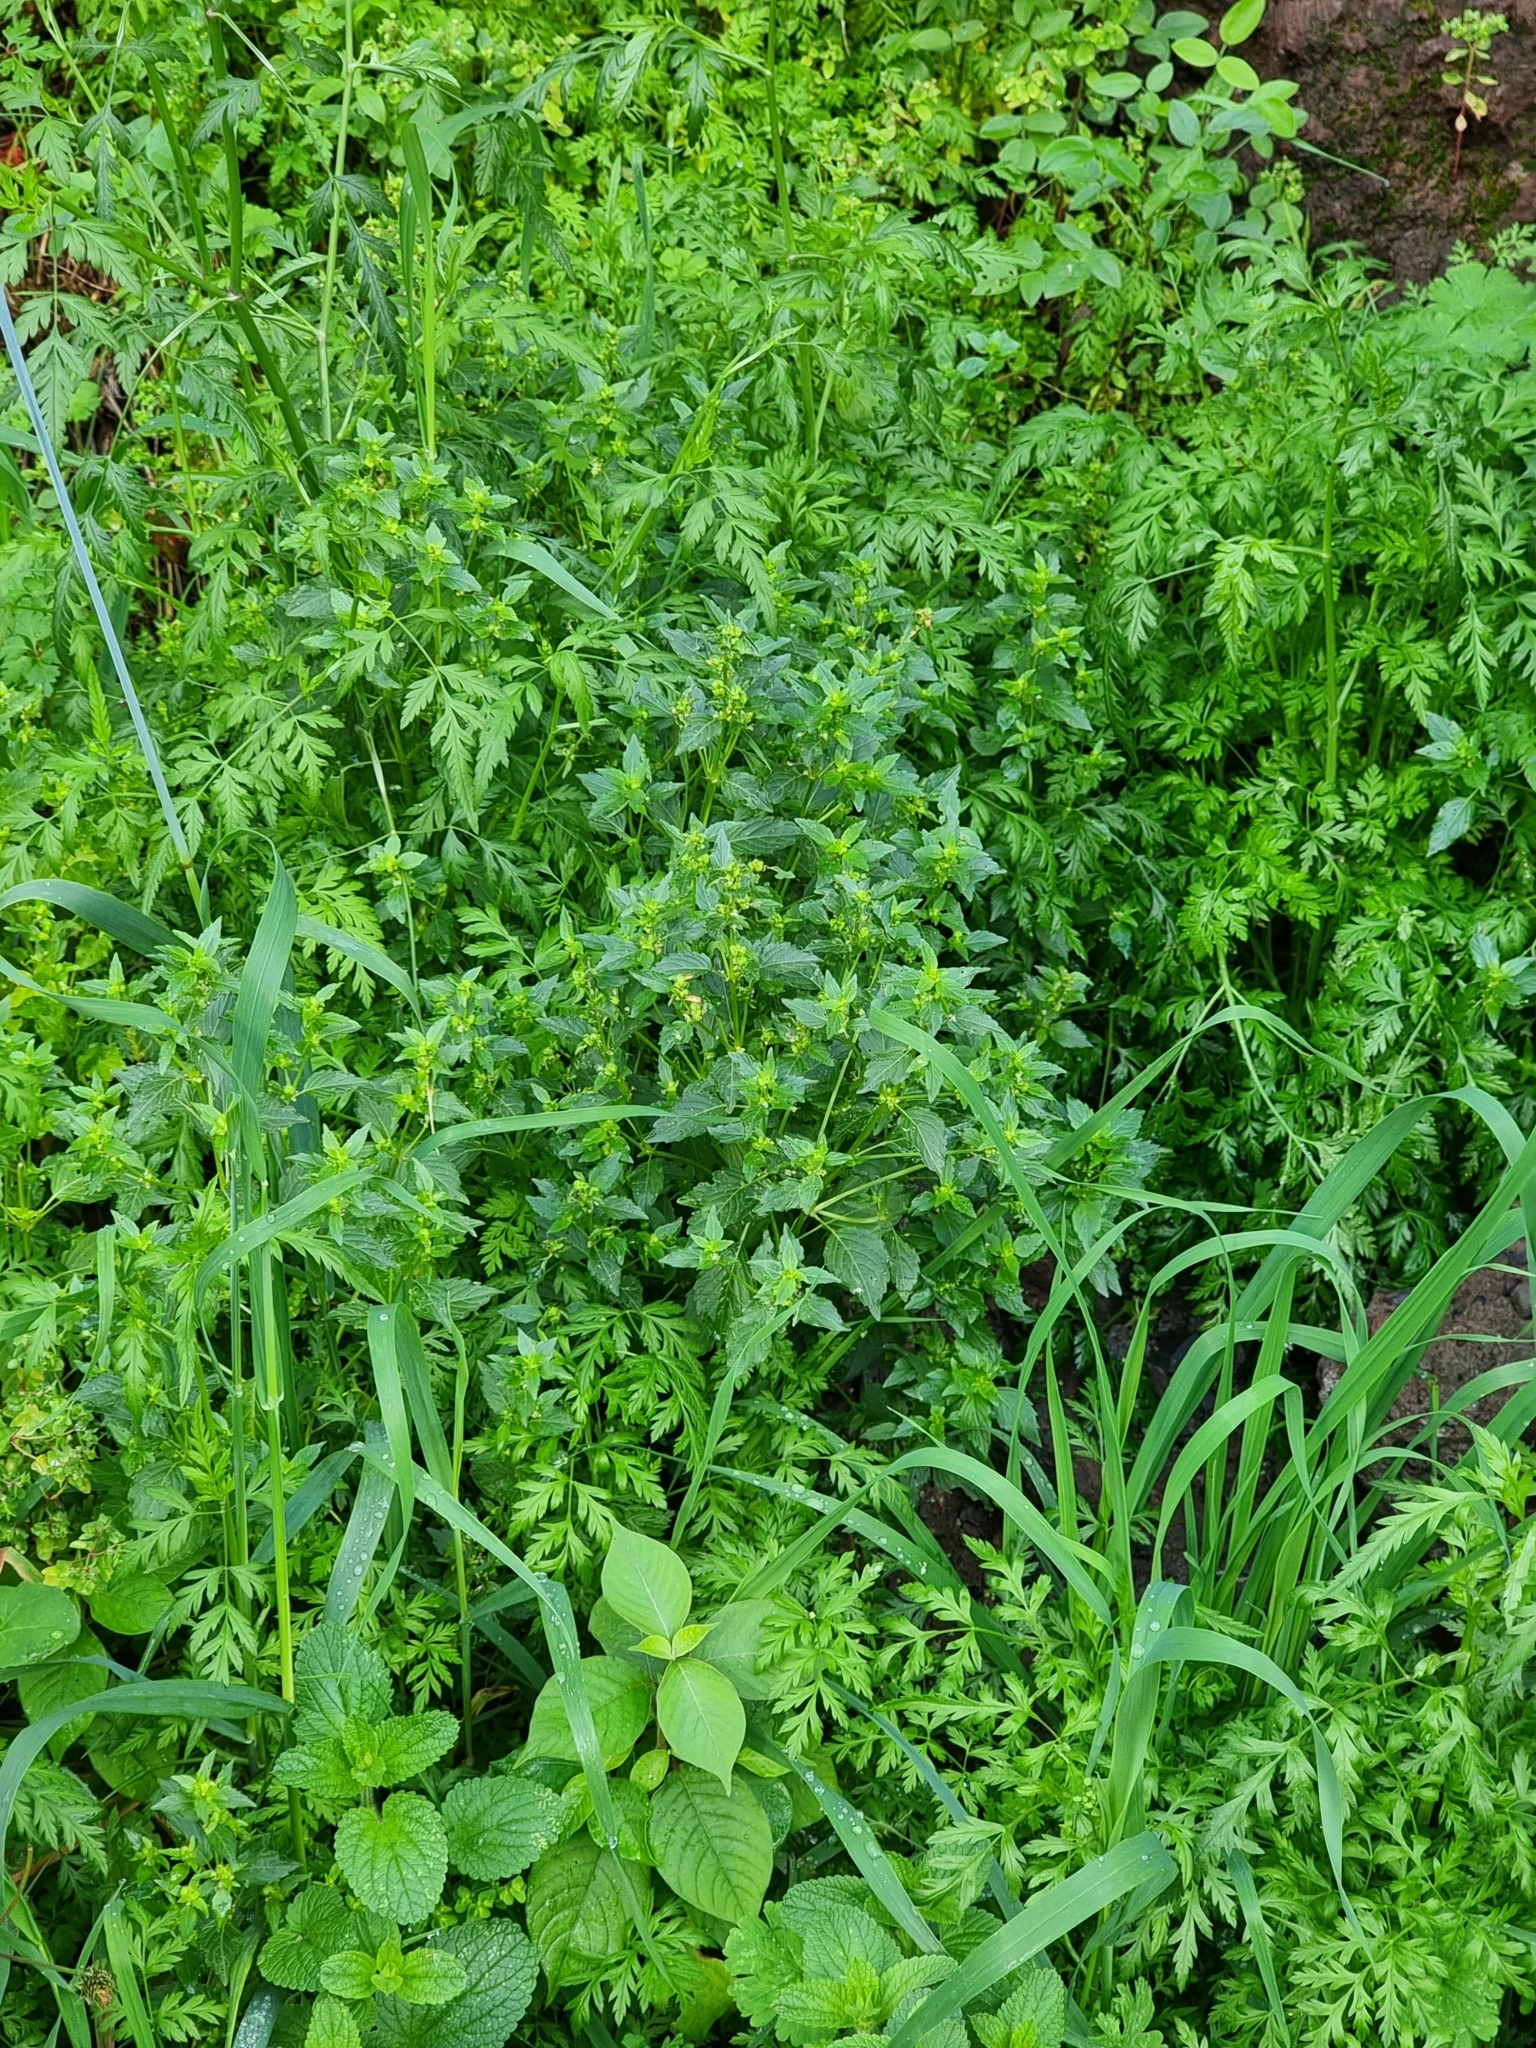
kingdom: Plantae
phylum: Tracheophyta
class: Magnoliopsida
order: Malpighiales
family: Euphorbiaceae
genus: Mercurialis
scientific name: Mercurialis annua
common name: Annual mercury
